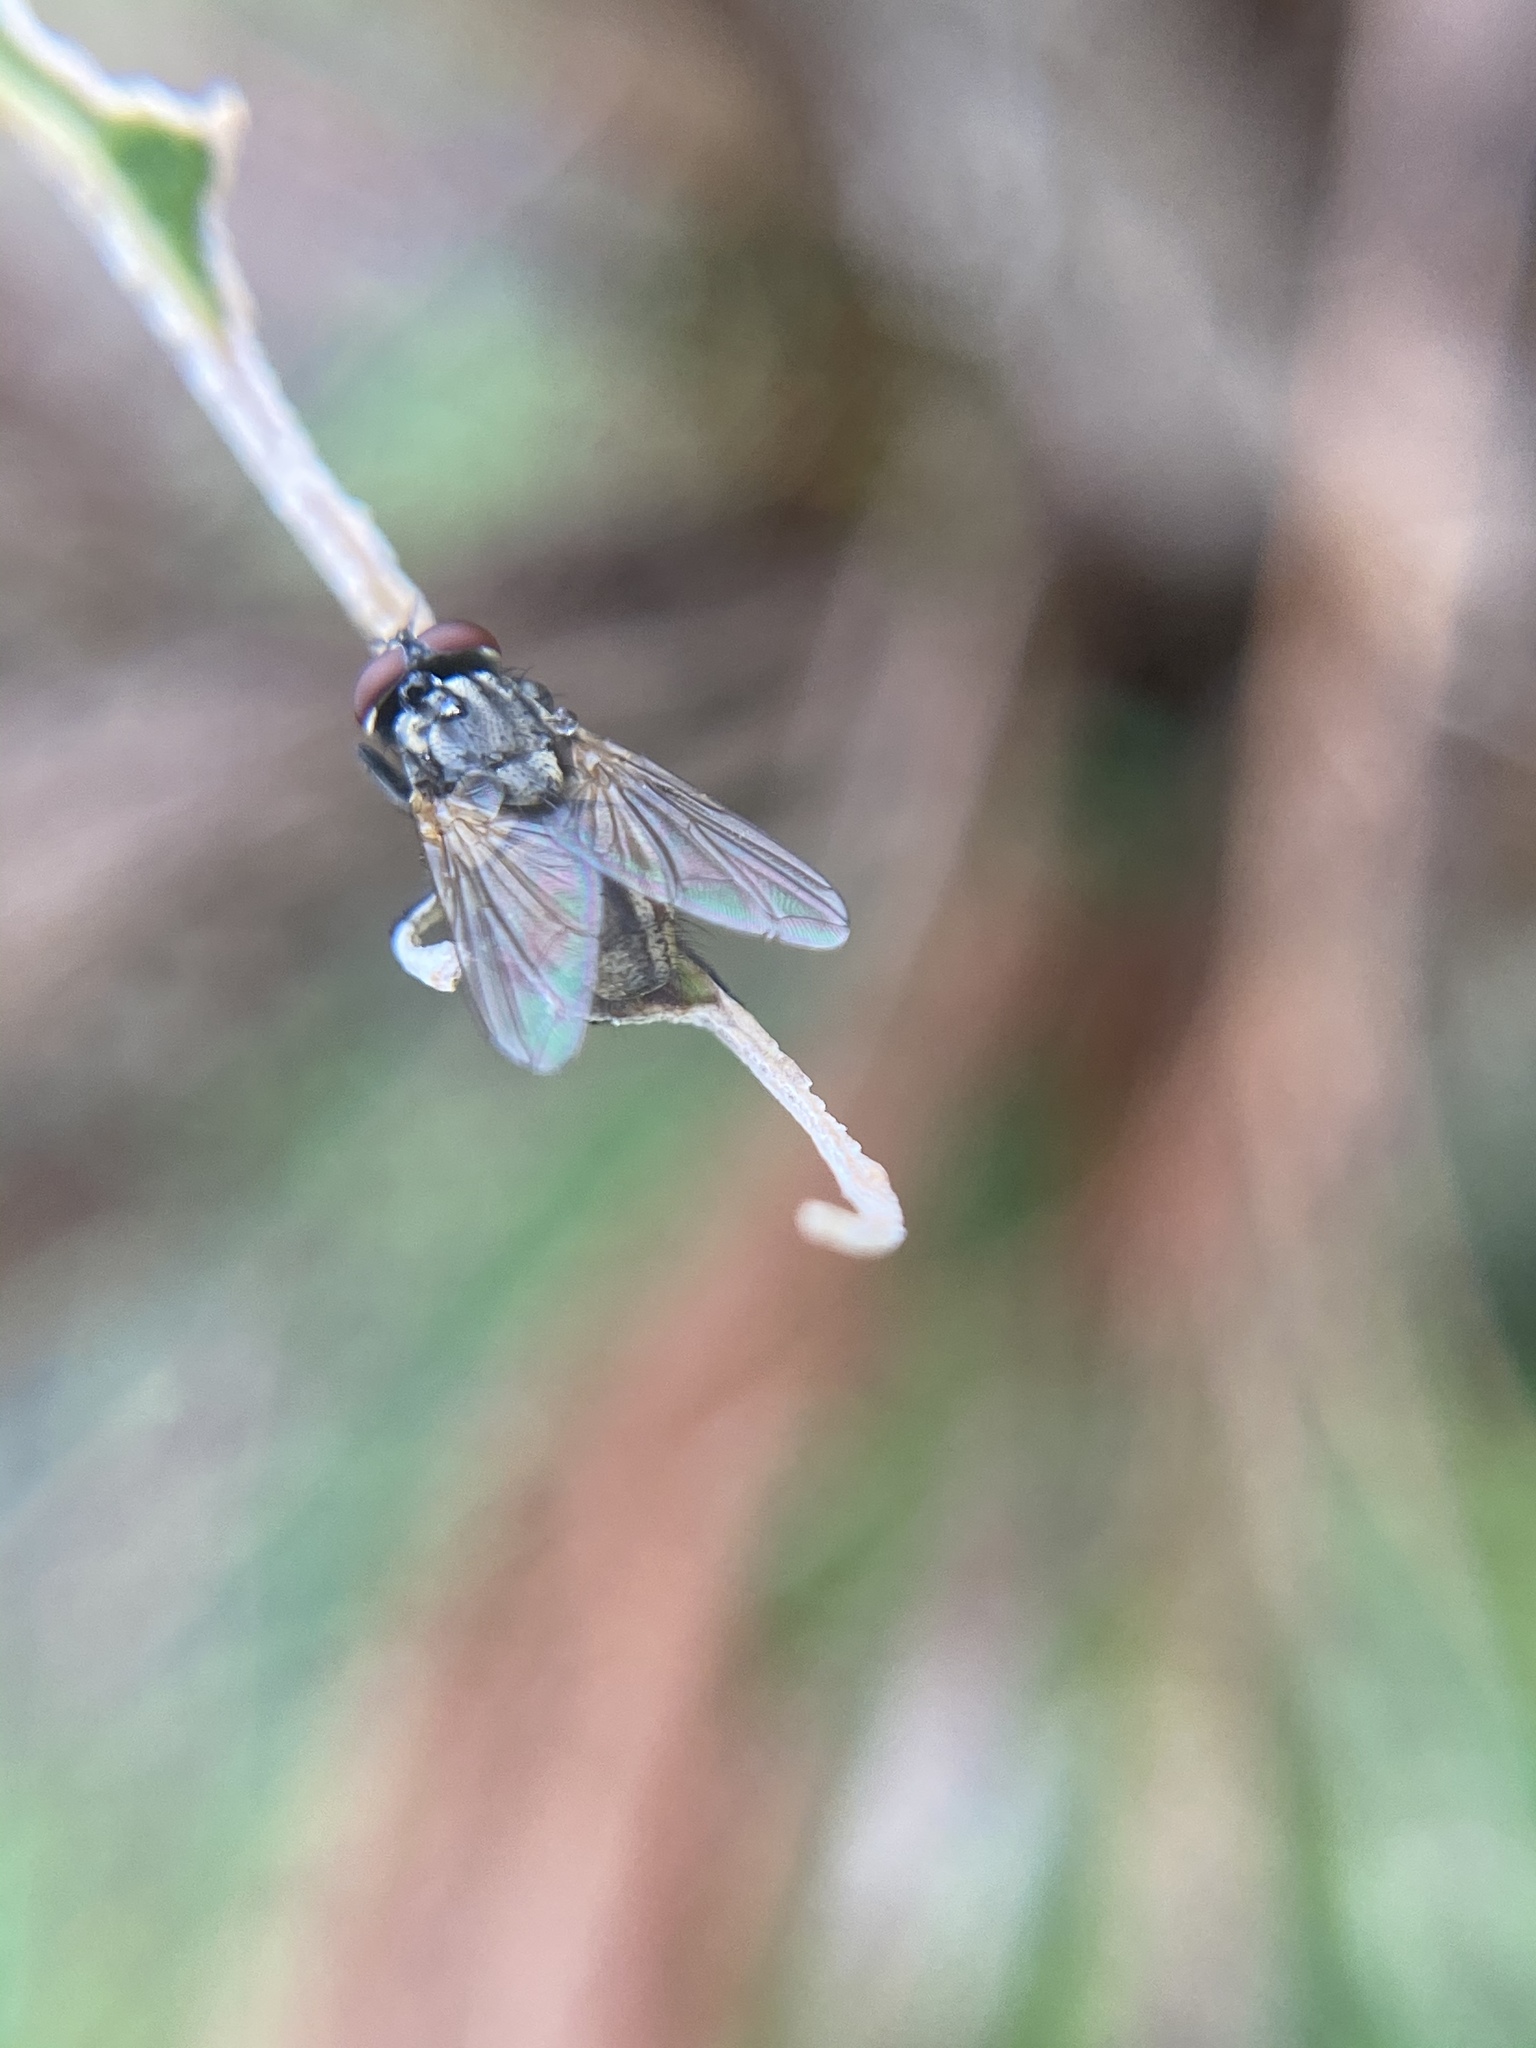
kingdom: Animalia
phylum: Arthropoda
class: Insecta
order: Diptera
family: Muscidae
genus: Musca
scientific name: Musca domestica
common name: House fly
